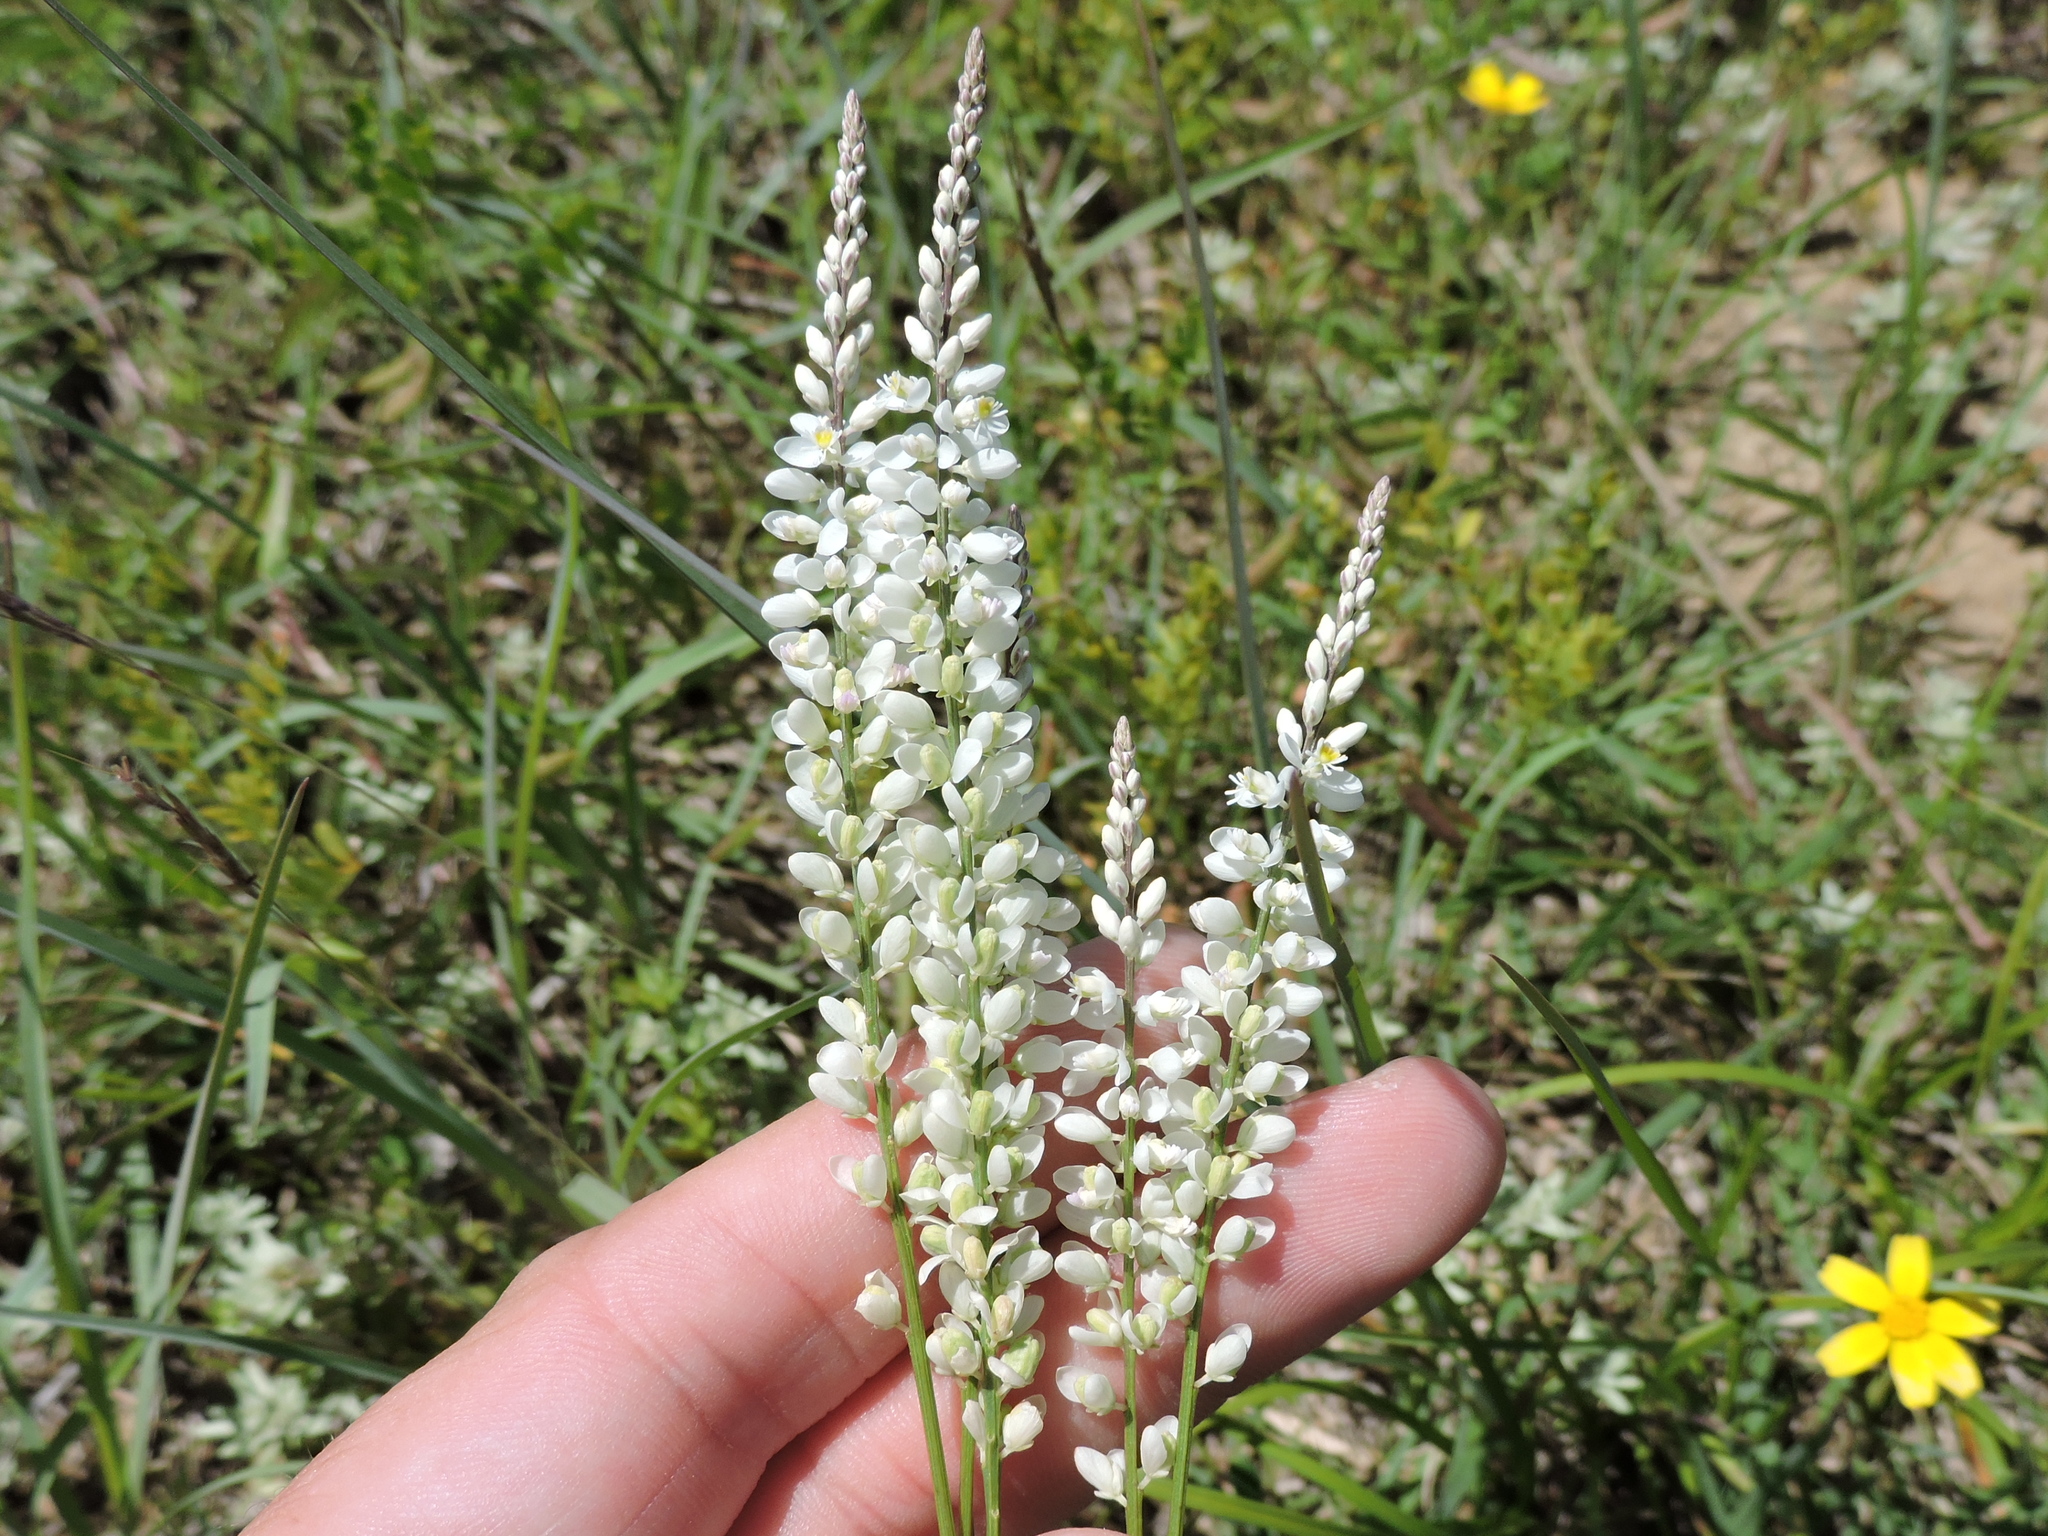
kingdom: Plantae
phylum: Tracheophyta
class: Magnoliopsida
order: Fabales
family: Polygalaceae
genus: Polygala
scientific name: Polygala alba
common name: White milkwort
